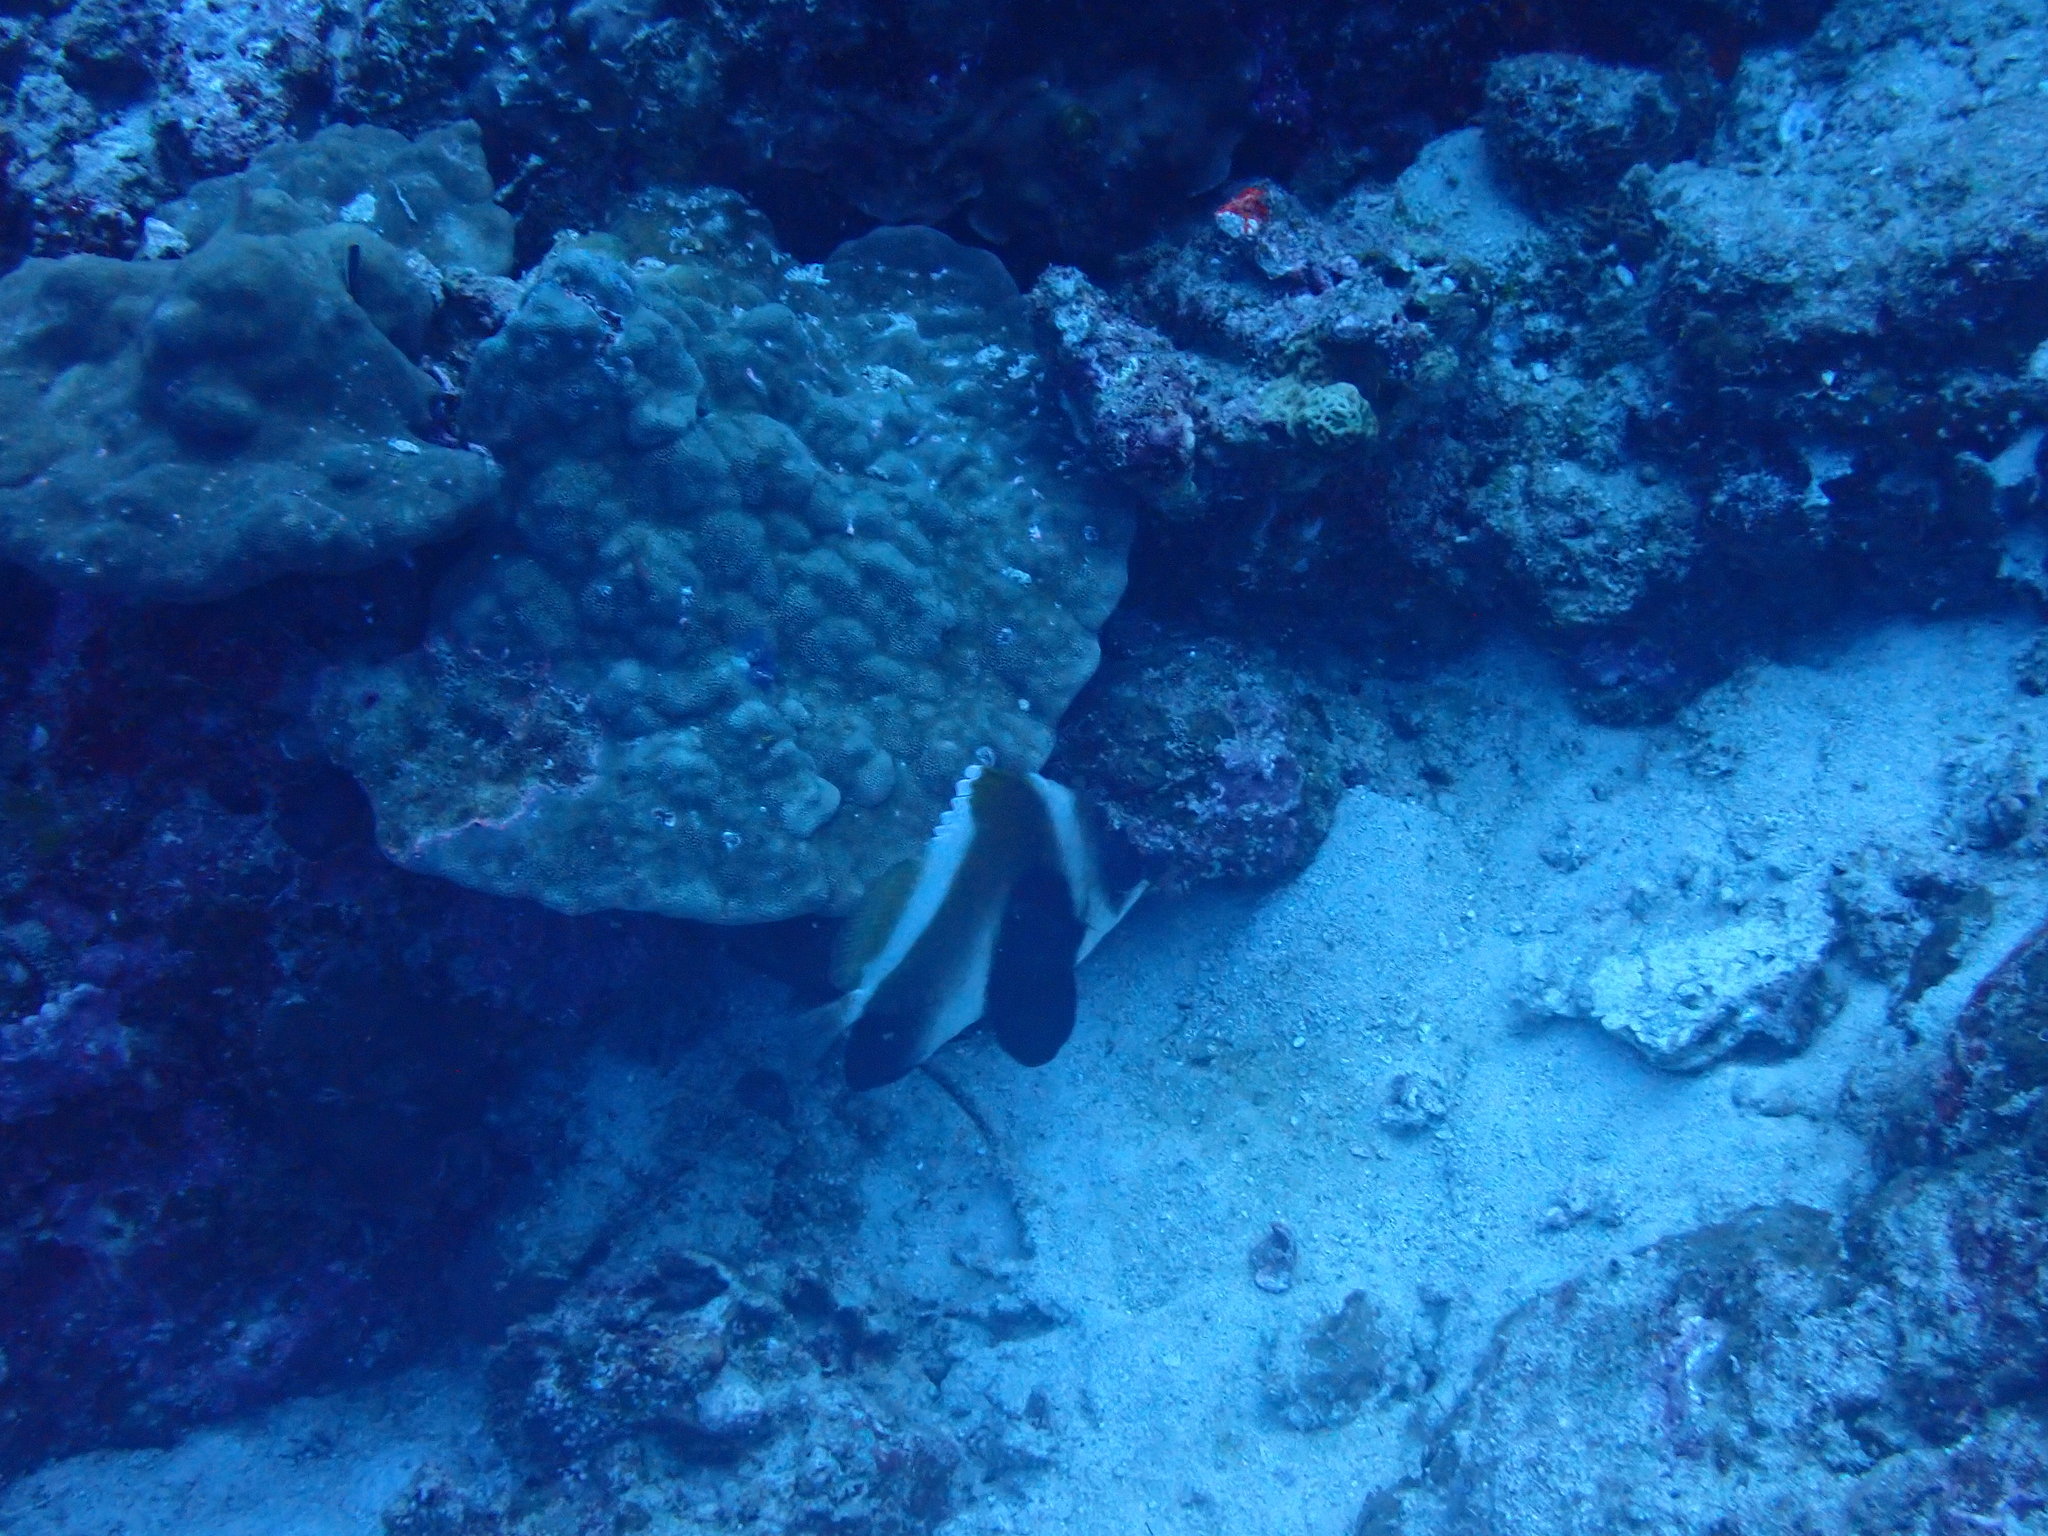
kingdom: Animalia
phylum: Chordata
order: Perciformes
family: Chaetodontidae
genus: Heniochus
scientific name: Heniochus pleurotaenia
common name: Indian ocean bannerfish
